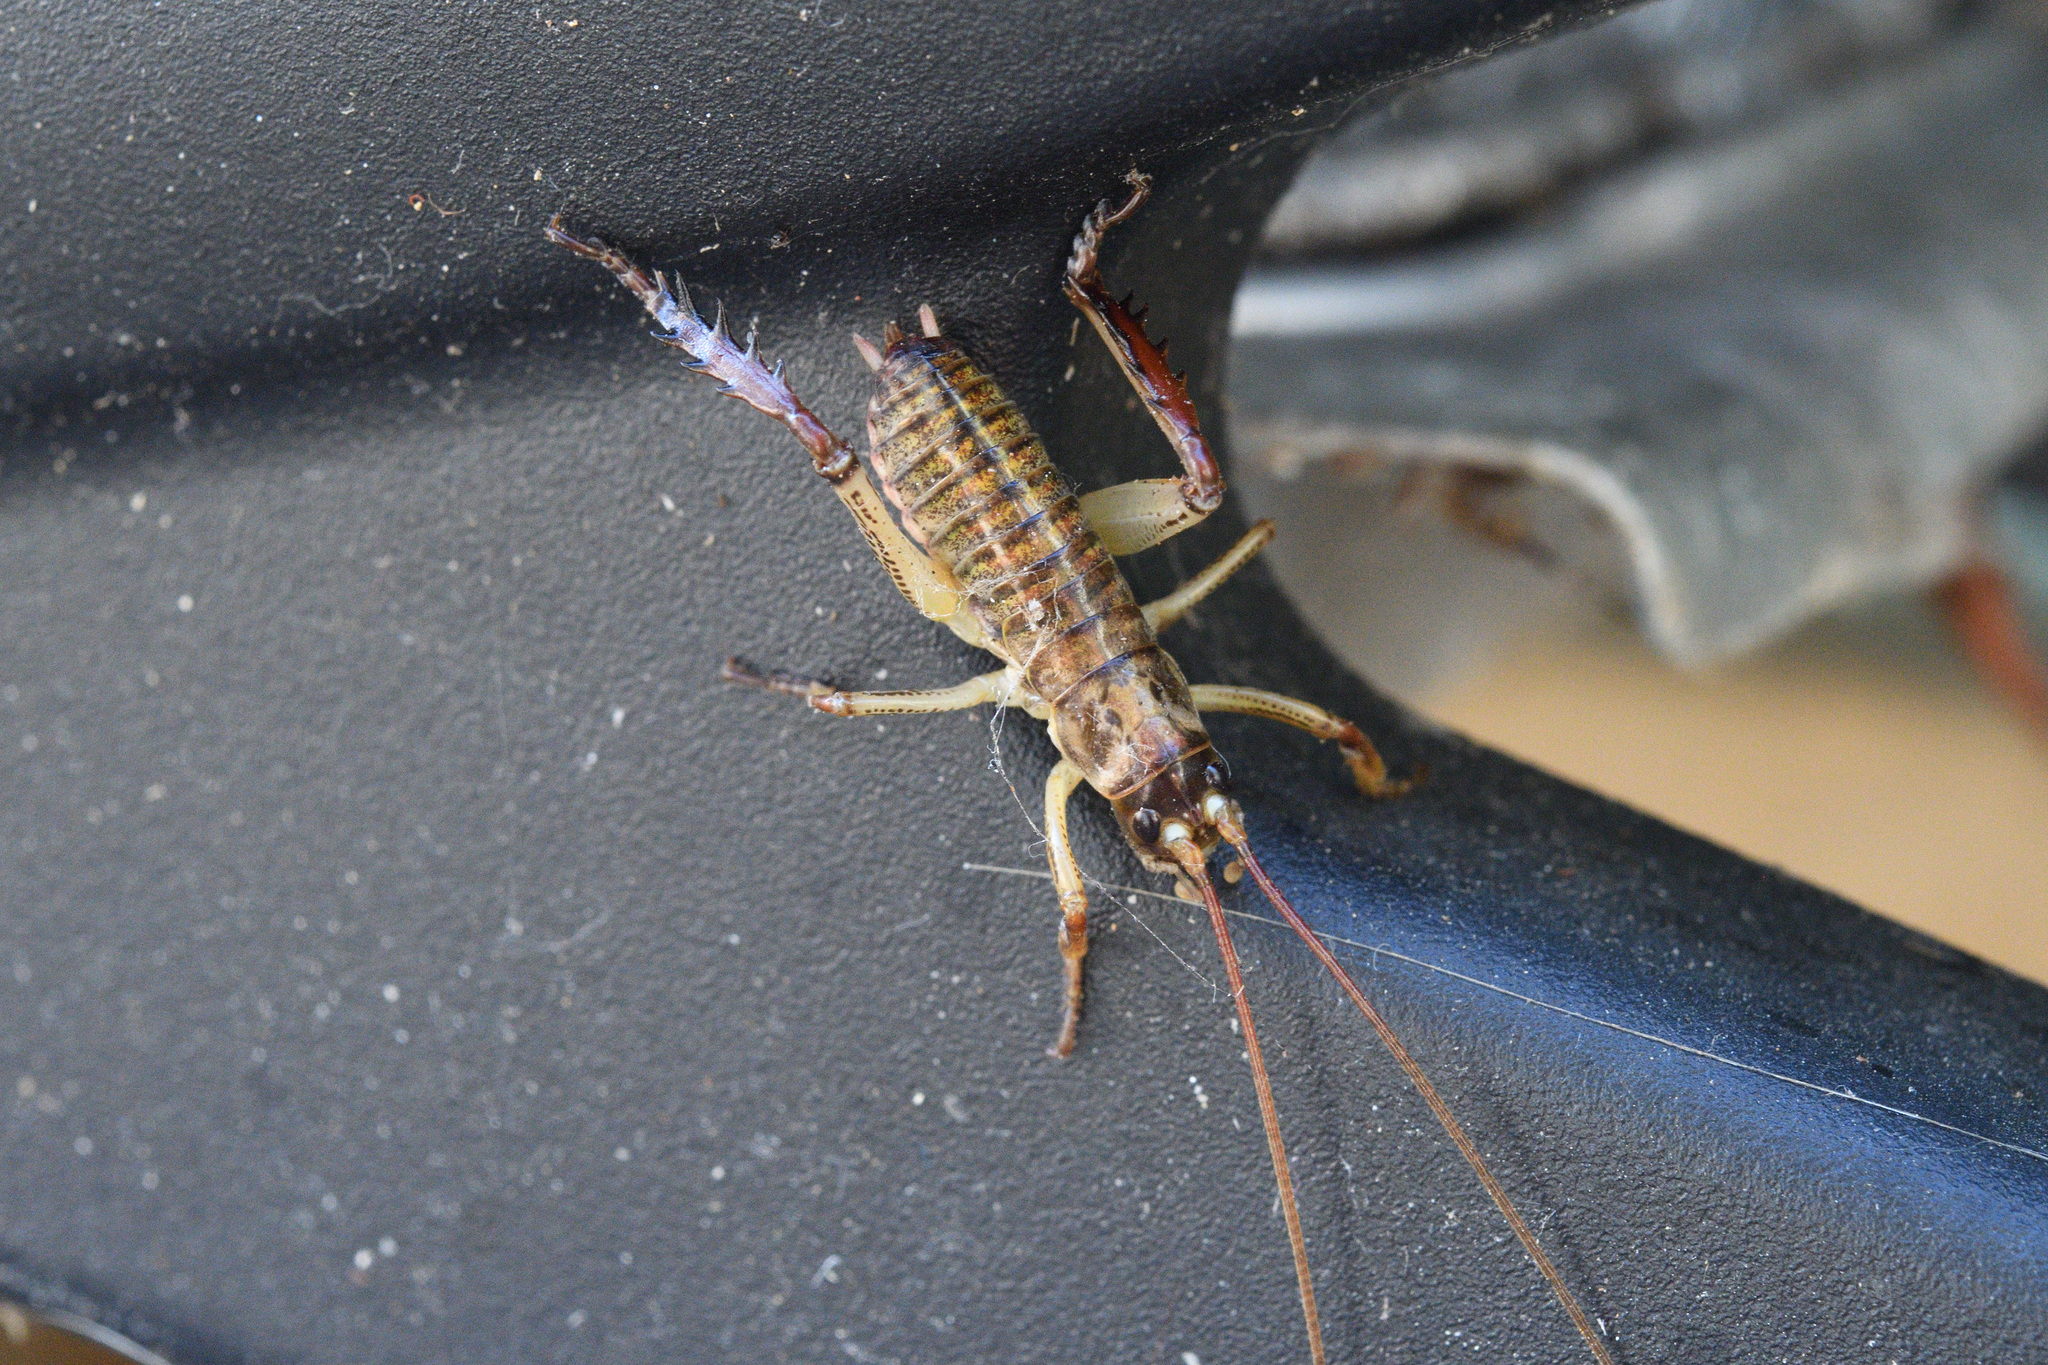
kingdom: Animalia
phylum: Arthropoda
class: Insecta
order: Orthoptera
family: Anostostomatidae
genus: Hemideina
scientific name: Hemideina thoracica
